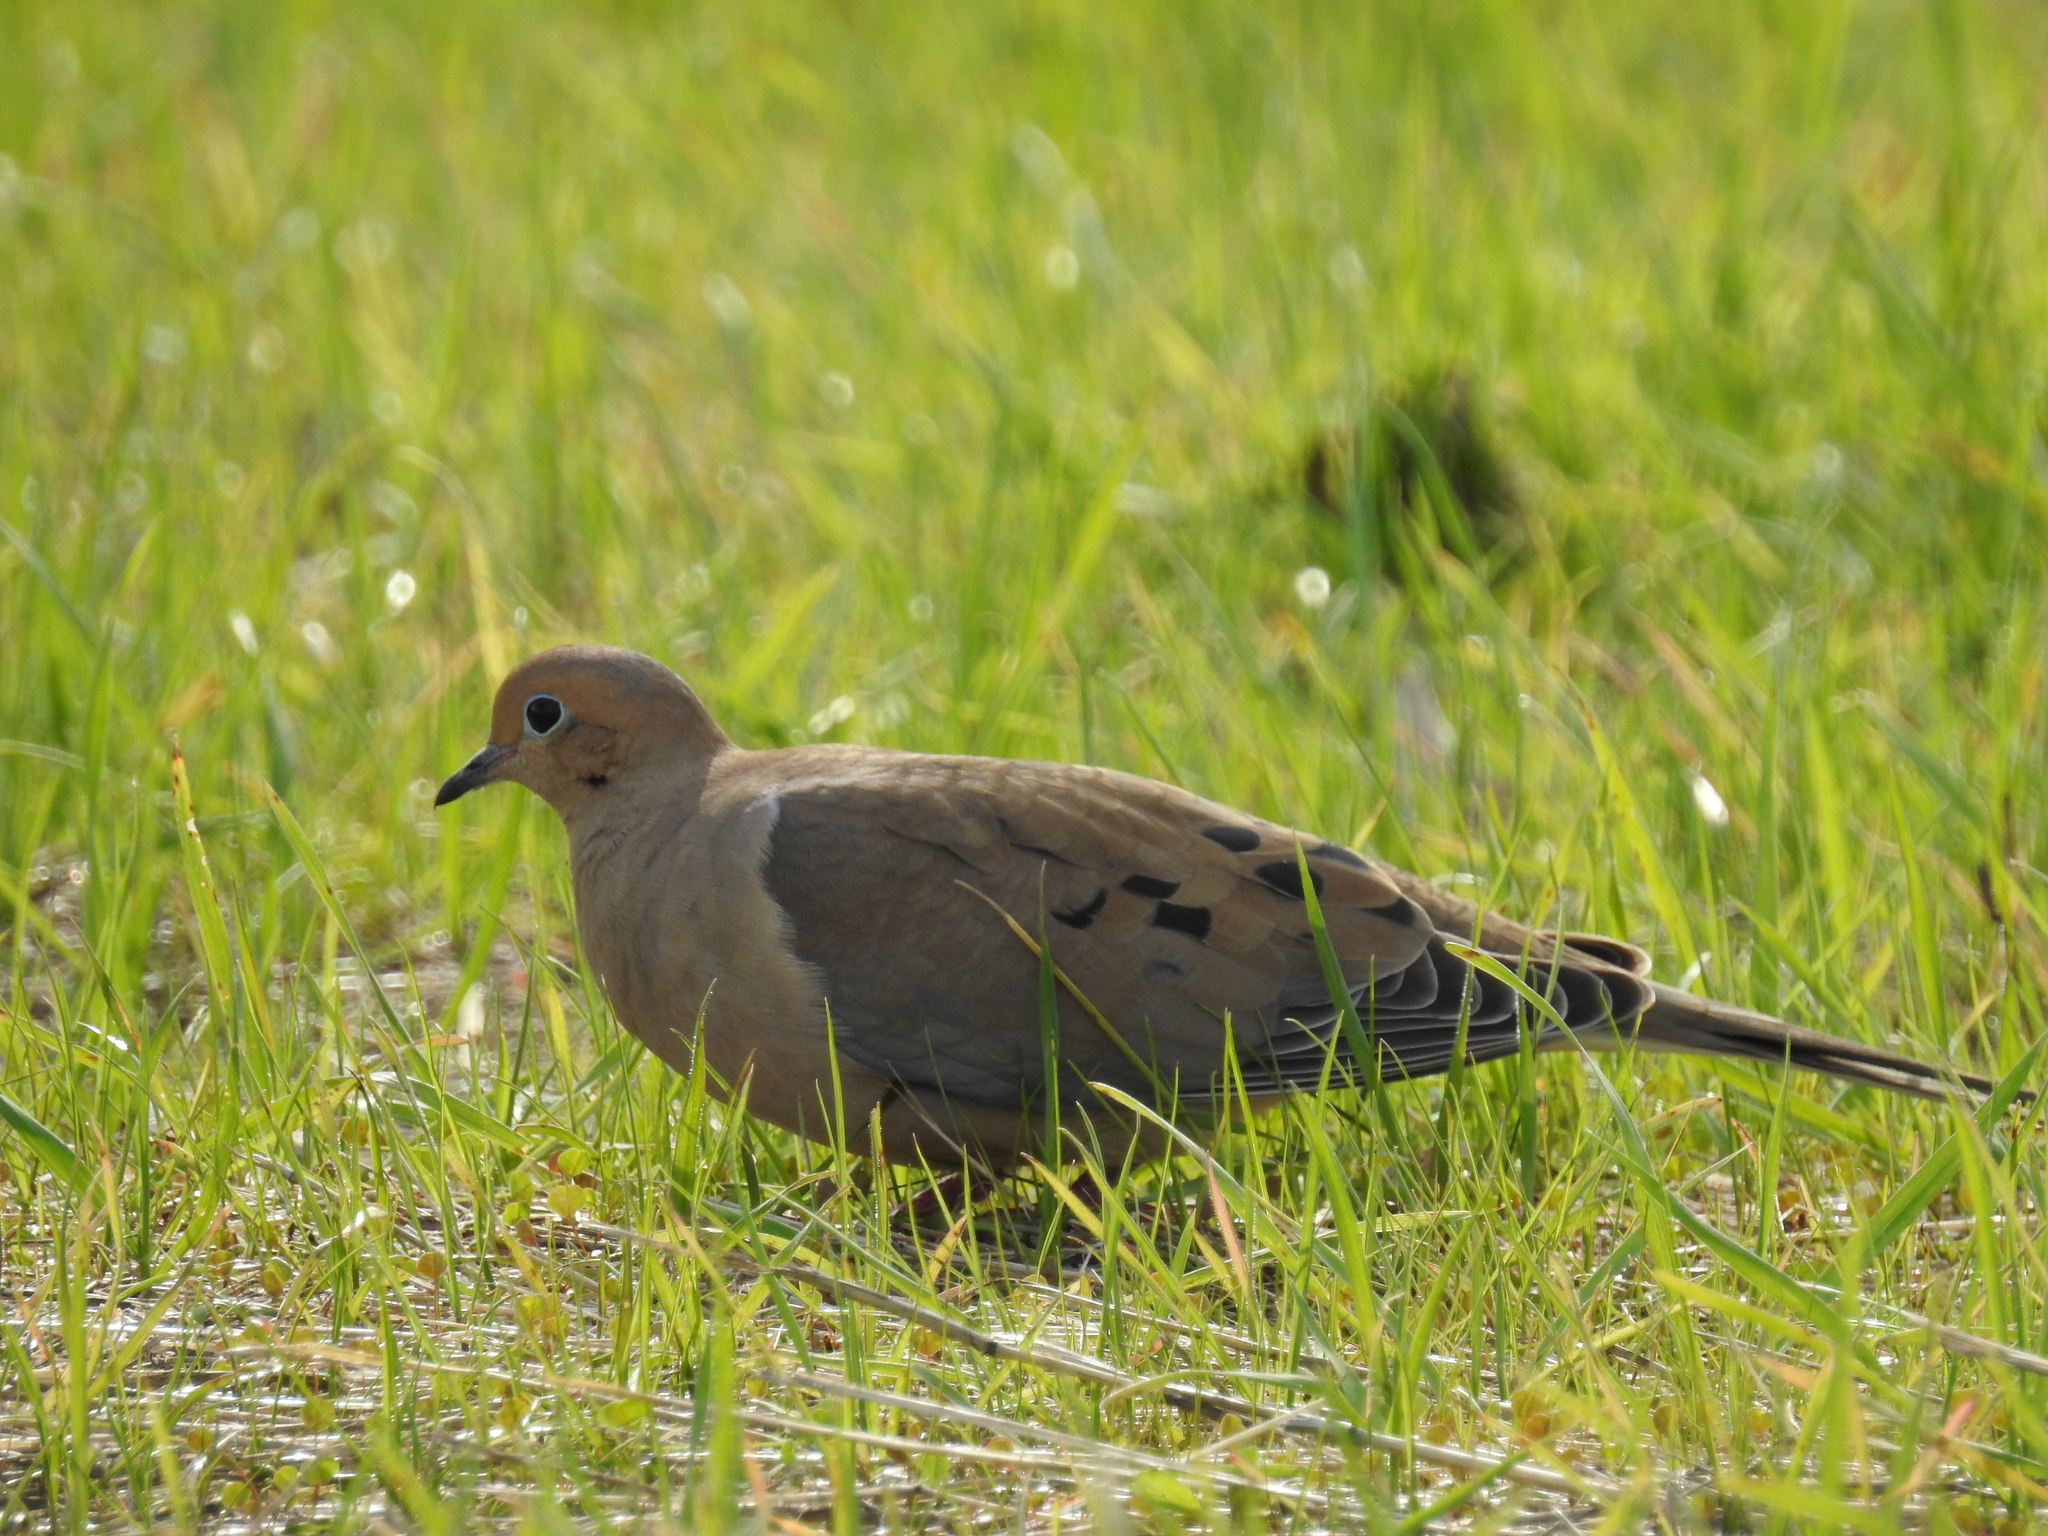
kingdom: Animalia
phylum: Chordata
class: Aves
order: Columbiformes
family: Columbidae
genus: Zenaida
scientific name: Zenaida macroura
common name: Mourning dove
